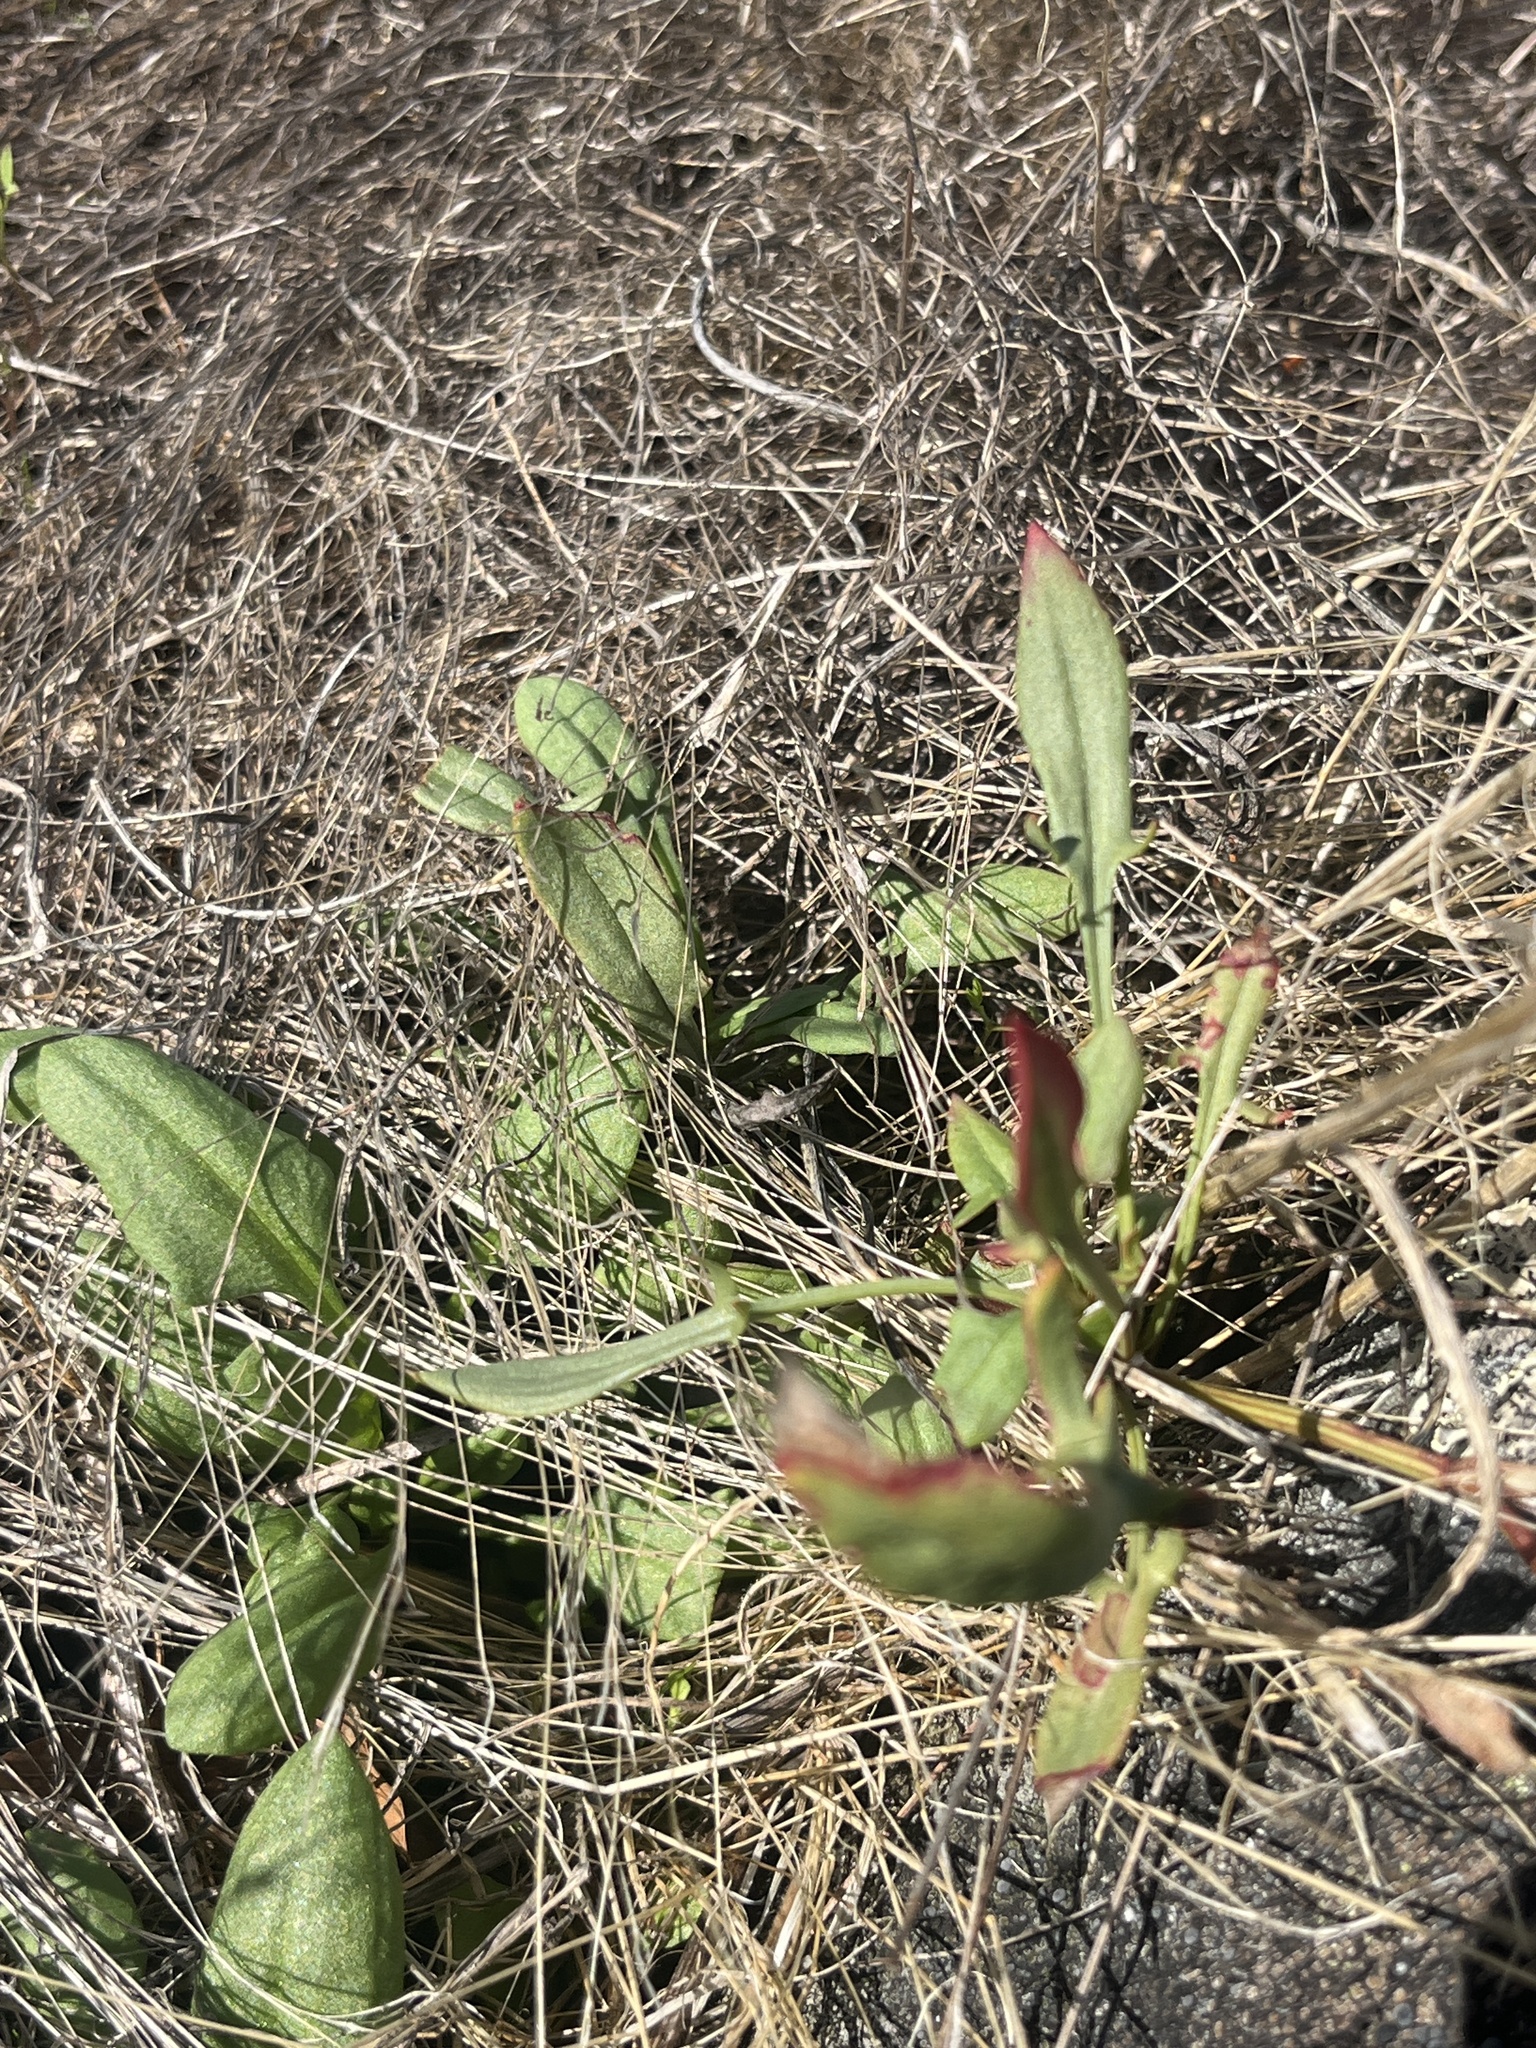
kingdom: Plantae
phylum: Tracheophyta
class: Magnoliopsida
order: Caryophyllales
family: Polygonaceae
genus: Rumex
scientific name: Rumex acetosella
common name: Common sheep sorrel
